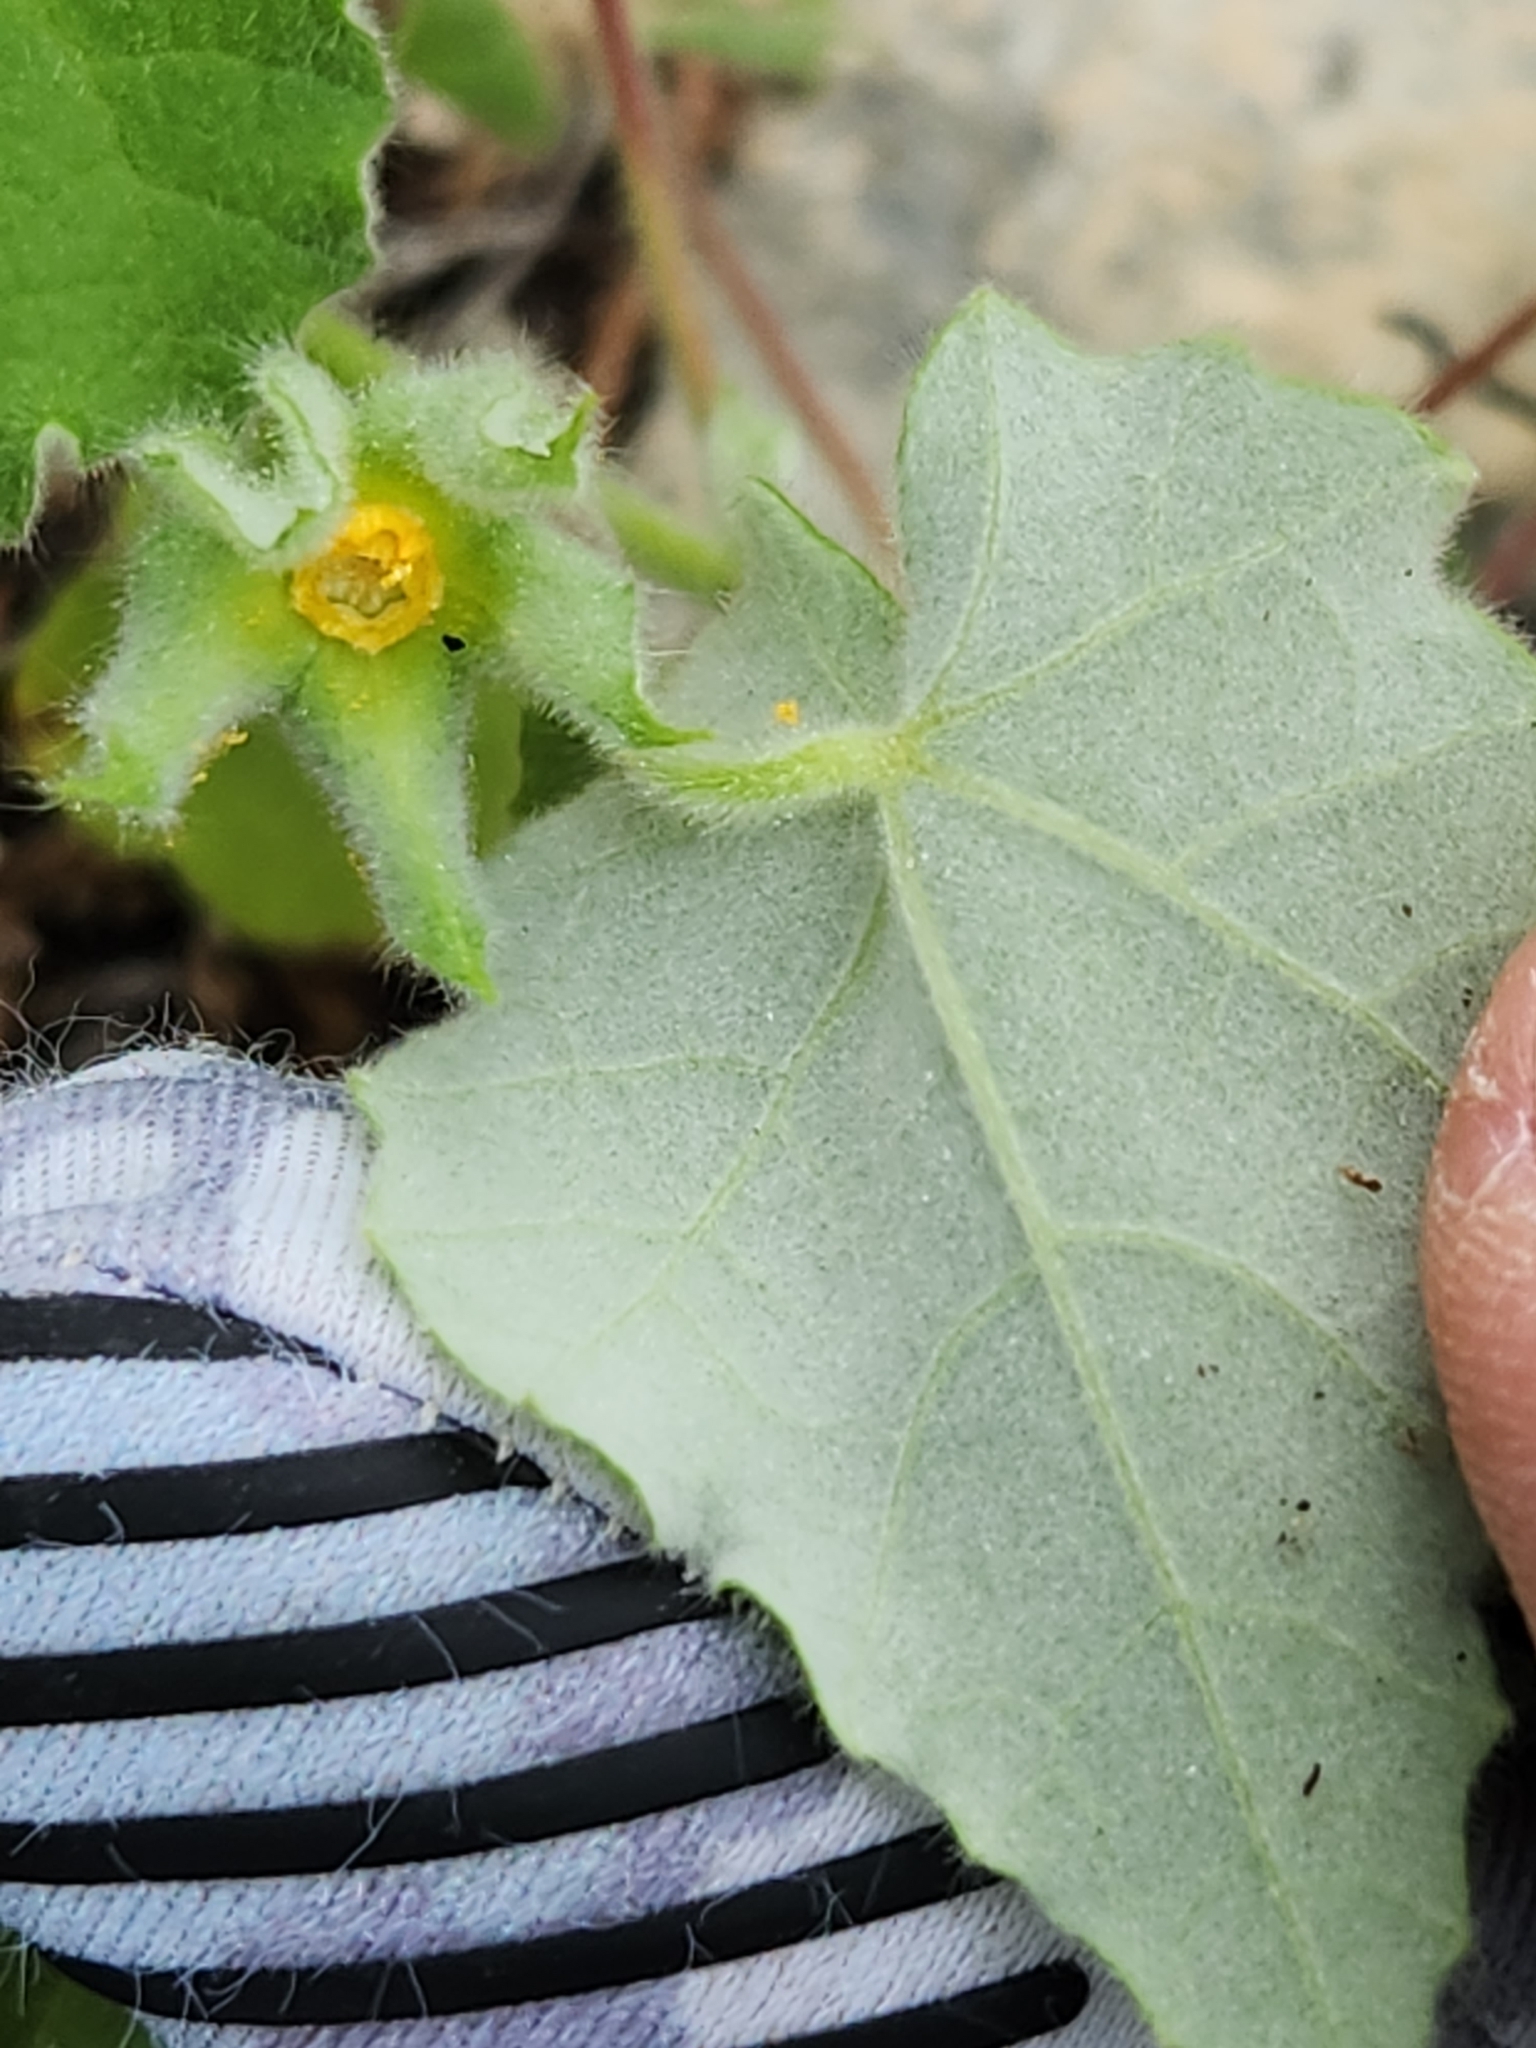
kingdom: Plantae
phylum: Tracheophyta
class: Magnoliopsida
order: Malvales
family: Malvaceae
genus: Abutilon
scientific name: Abutilon wrightii
